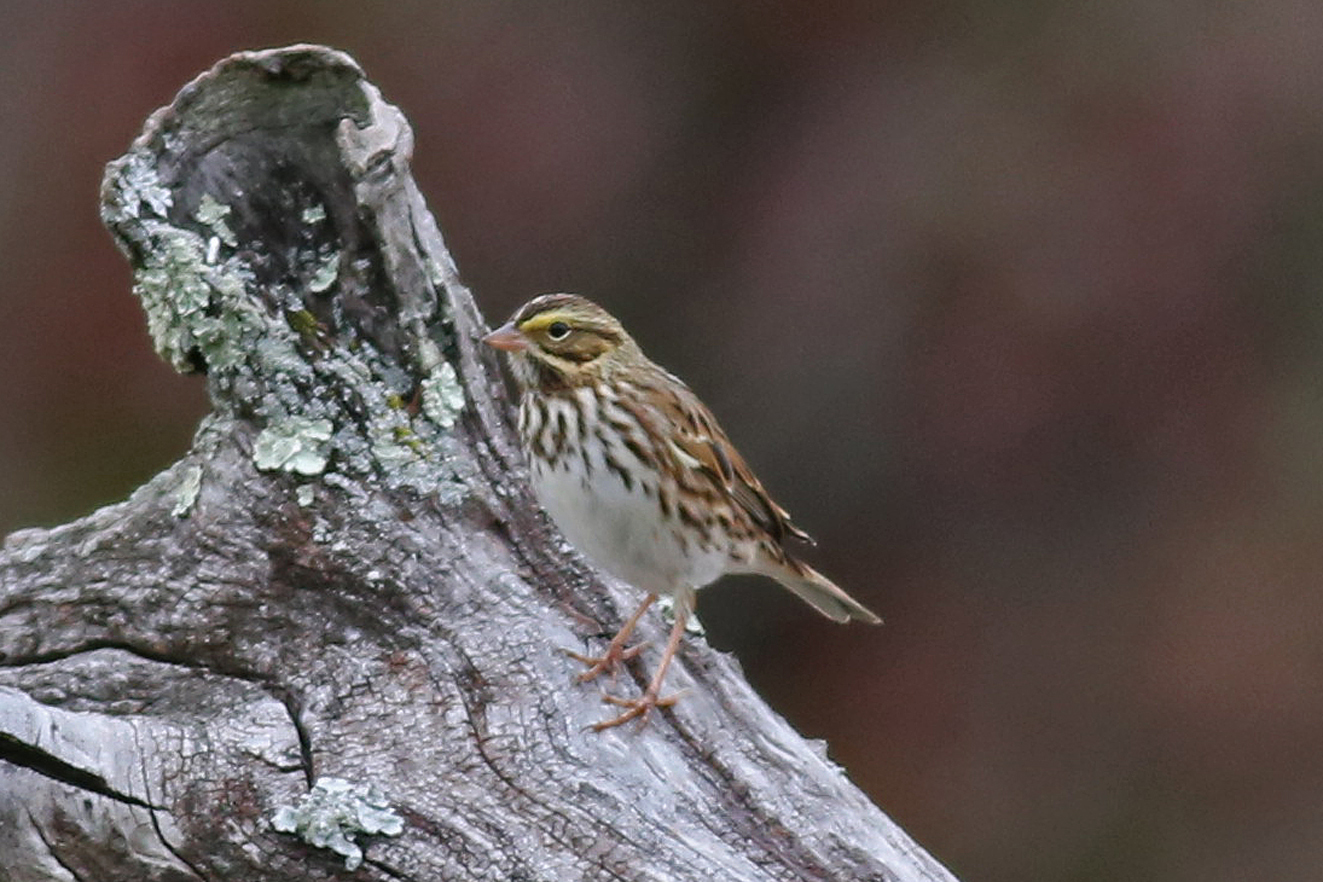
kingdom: Animalia
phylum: Chordata
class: Aves
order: Passeriformes
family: Passerellidae
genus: Passerculus
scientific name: Passerculus sandwichensis
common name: Savannah sparrow
